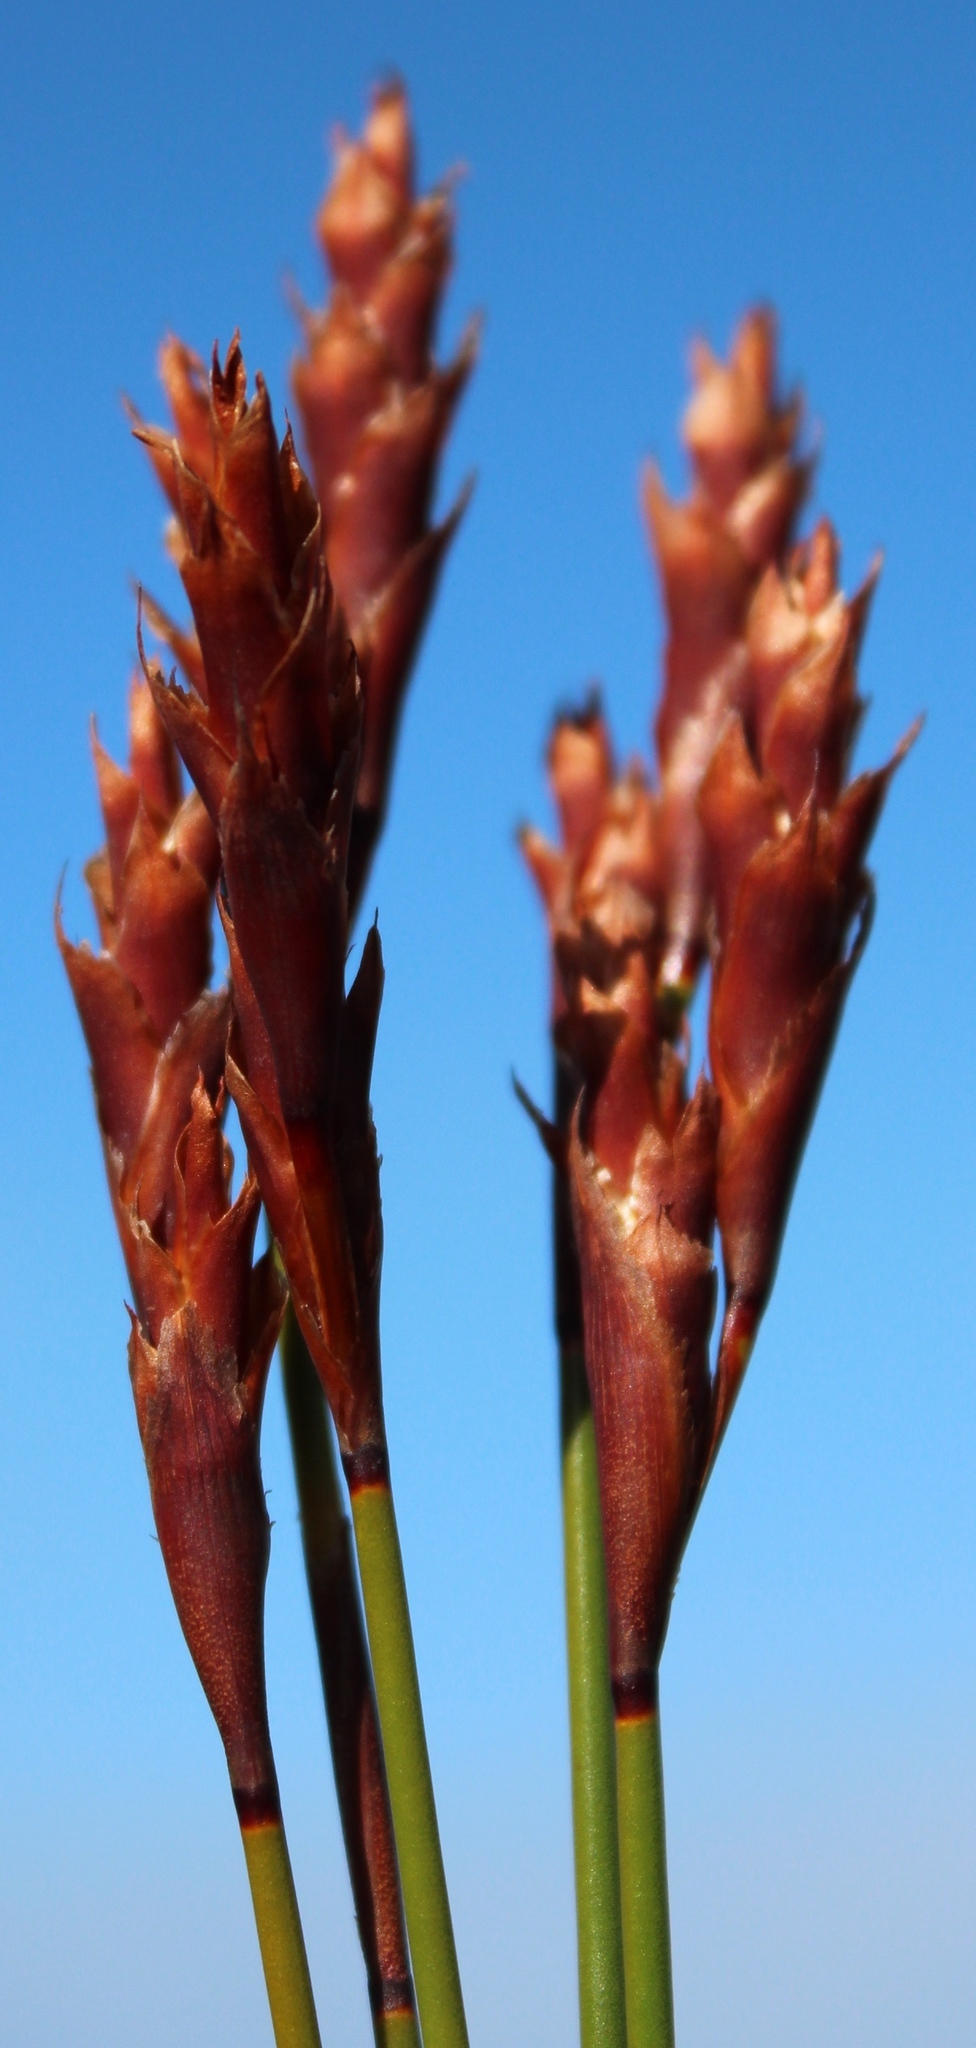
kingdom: Plantae
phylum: Tracheophyta
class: Liliopsida
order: Poales
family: Restionaceae
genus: Staberoha
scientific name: Staberoha banksii
